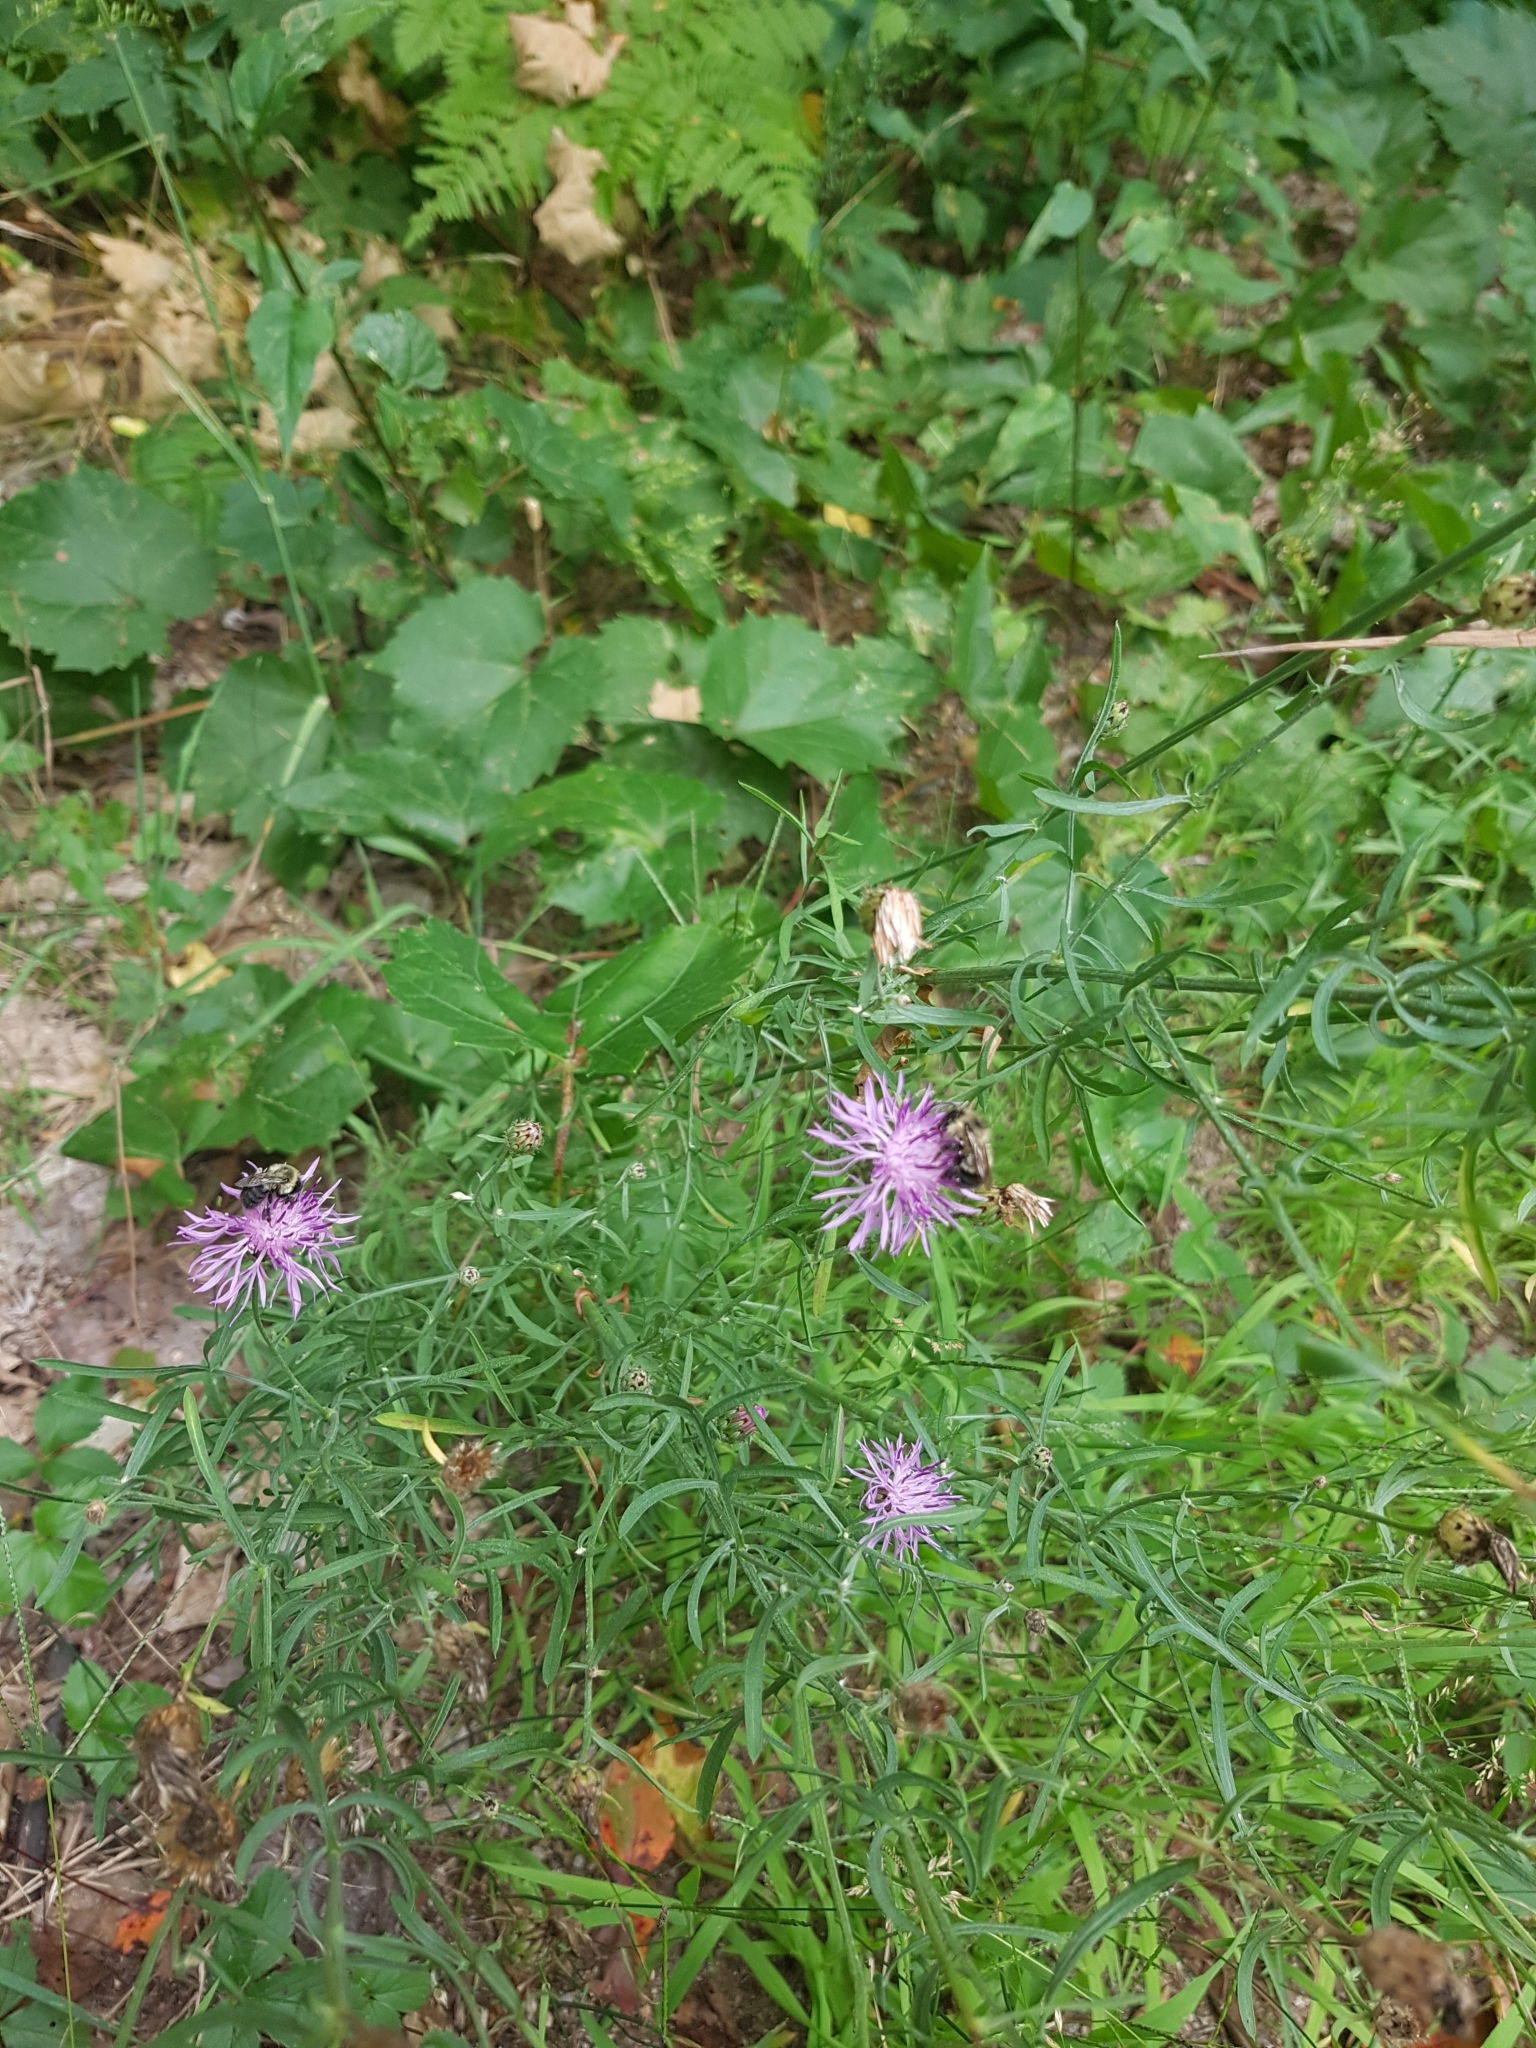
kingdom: Plantae
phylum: Tracheophyta
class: Magnoliopsida
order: Asterales
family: Asteraceae
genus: Centaurea
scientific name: Centaurea stoebe
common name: Spotted knapweed
